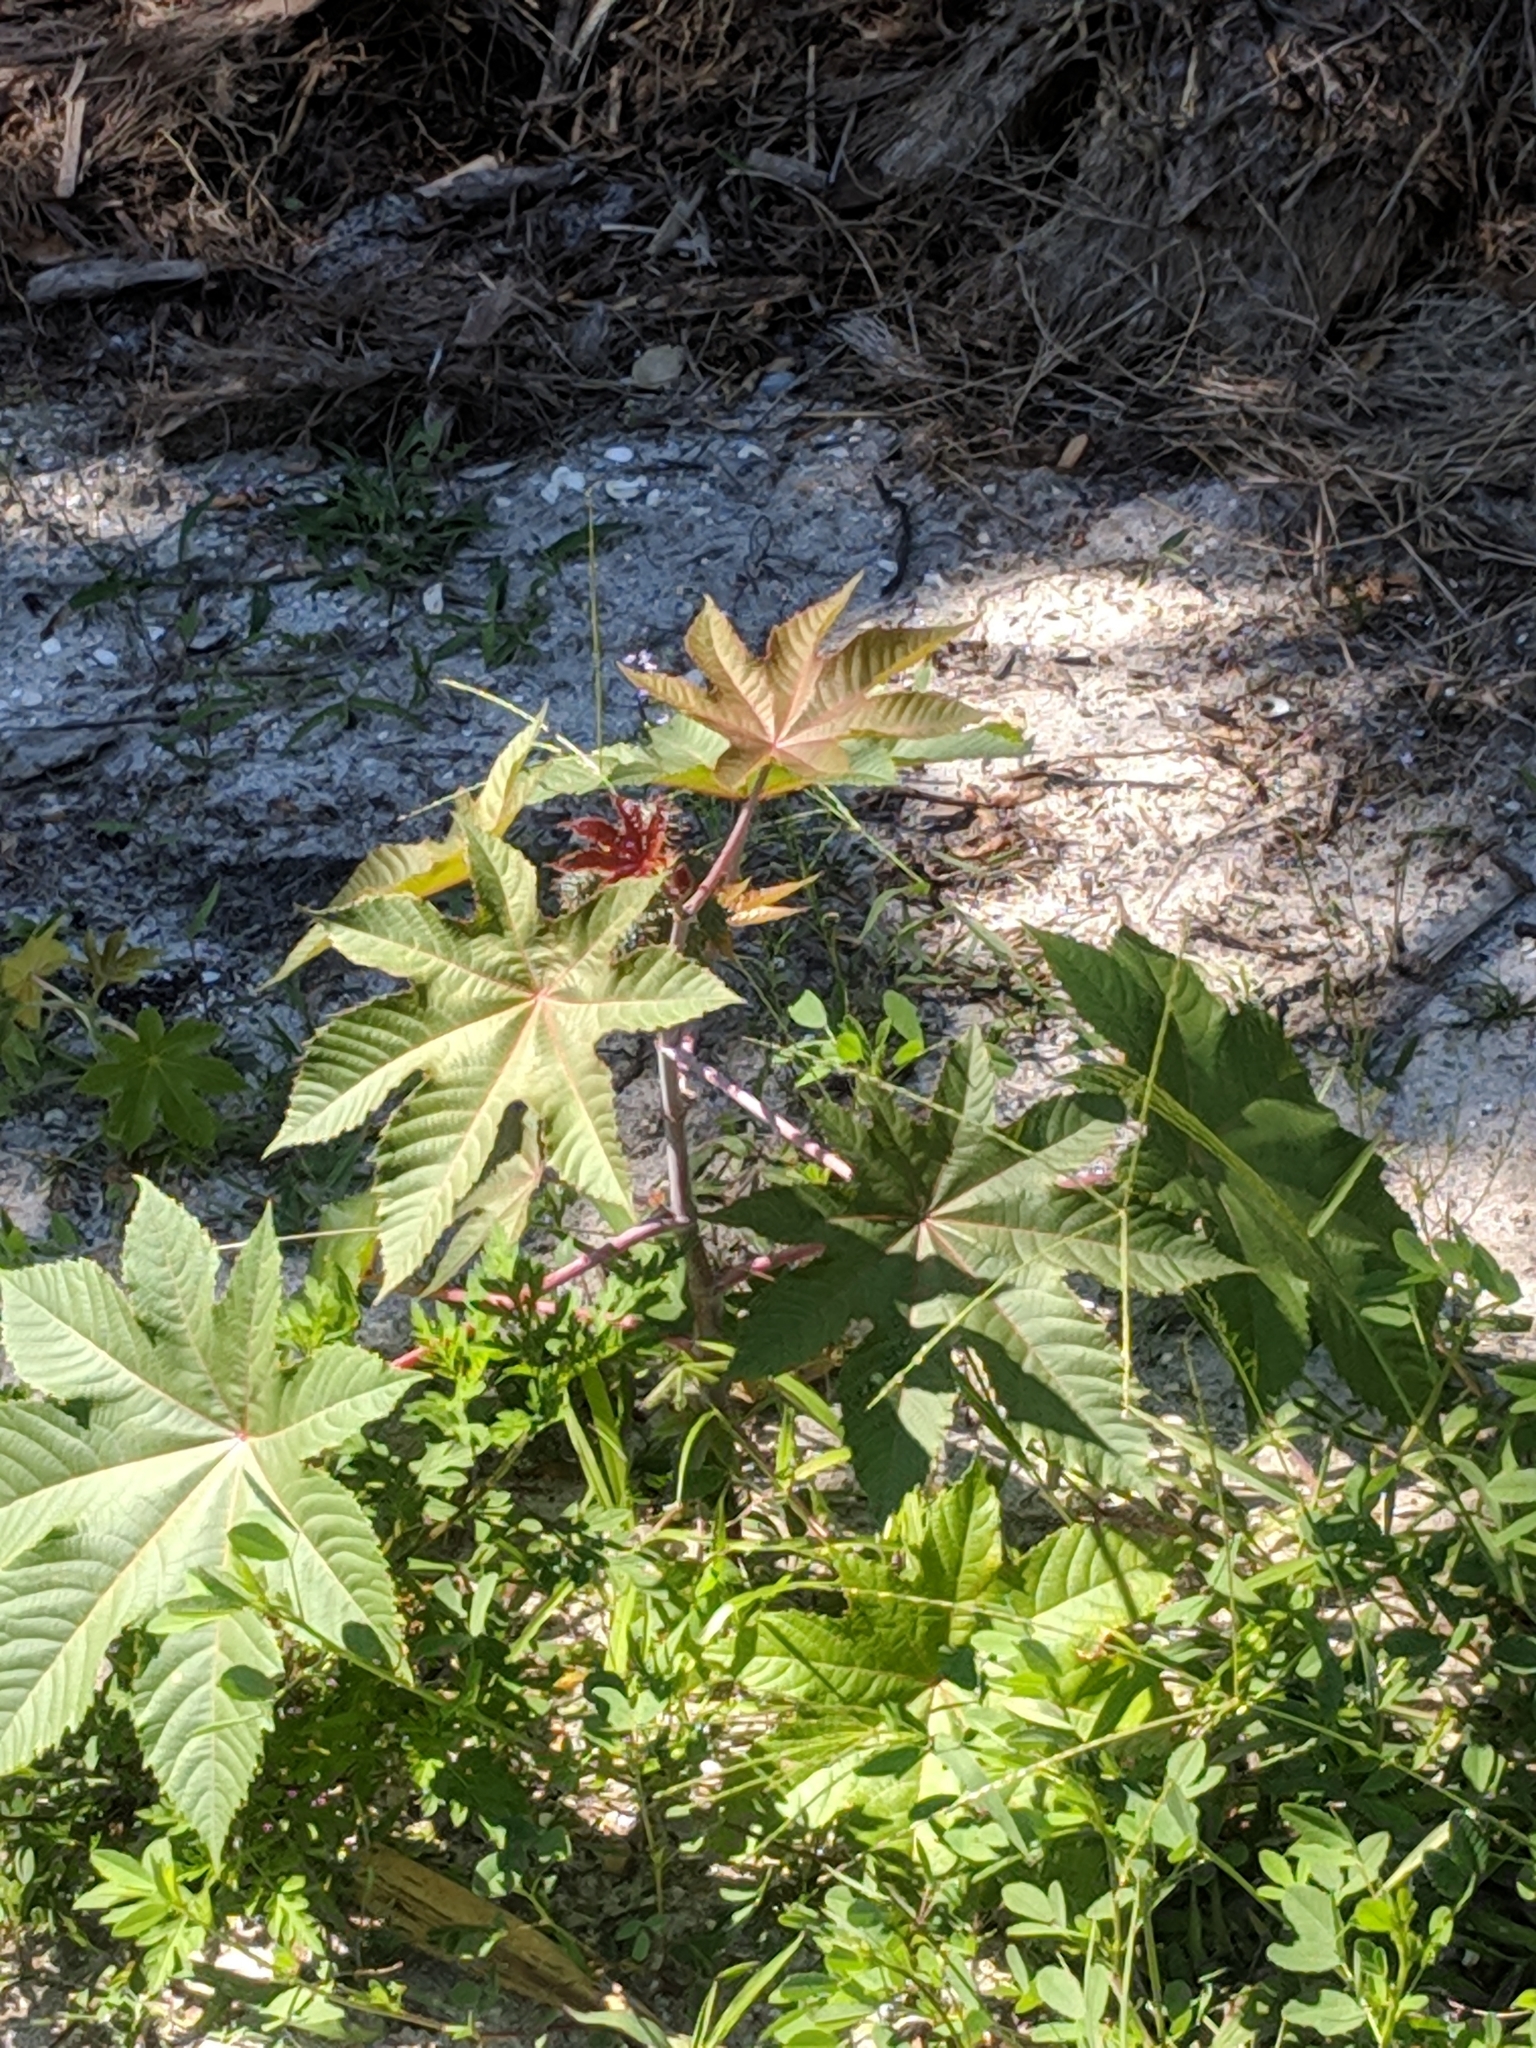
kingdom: Plantae
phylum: Tracheophyta
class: Magnoliopsida
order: Malpighiales
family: Euphorbiaceae
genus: Ricinus
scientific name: Ricinus communis
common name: Castor-oil-plant
